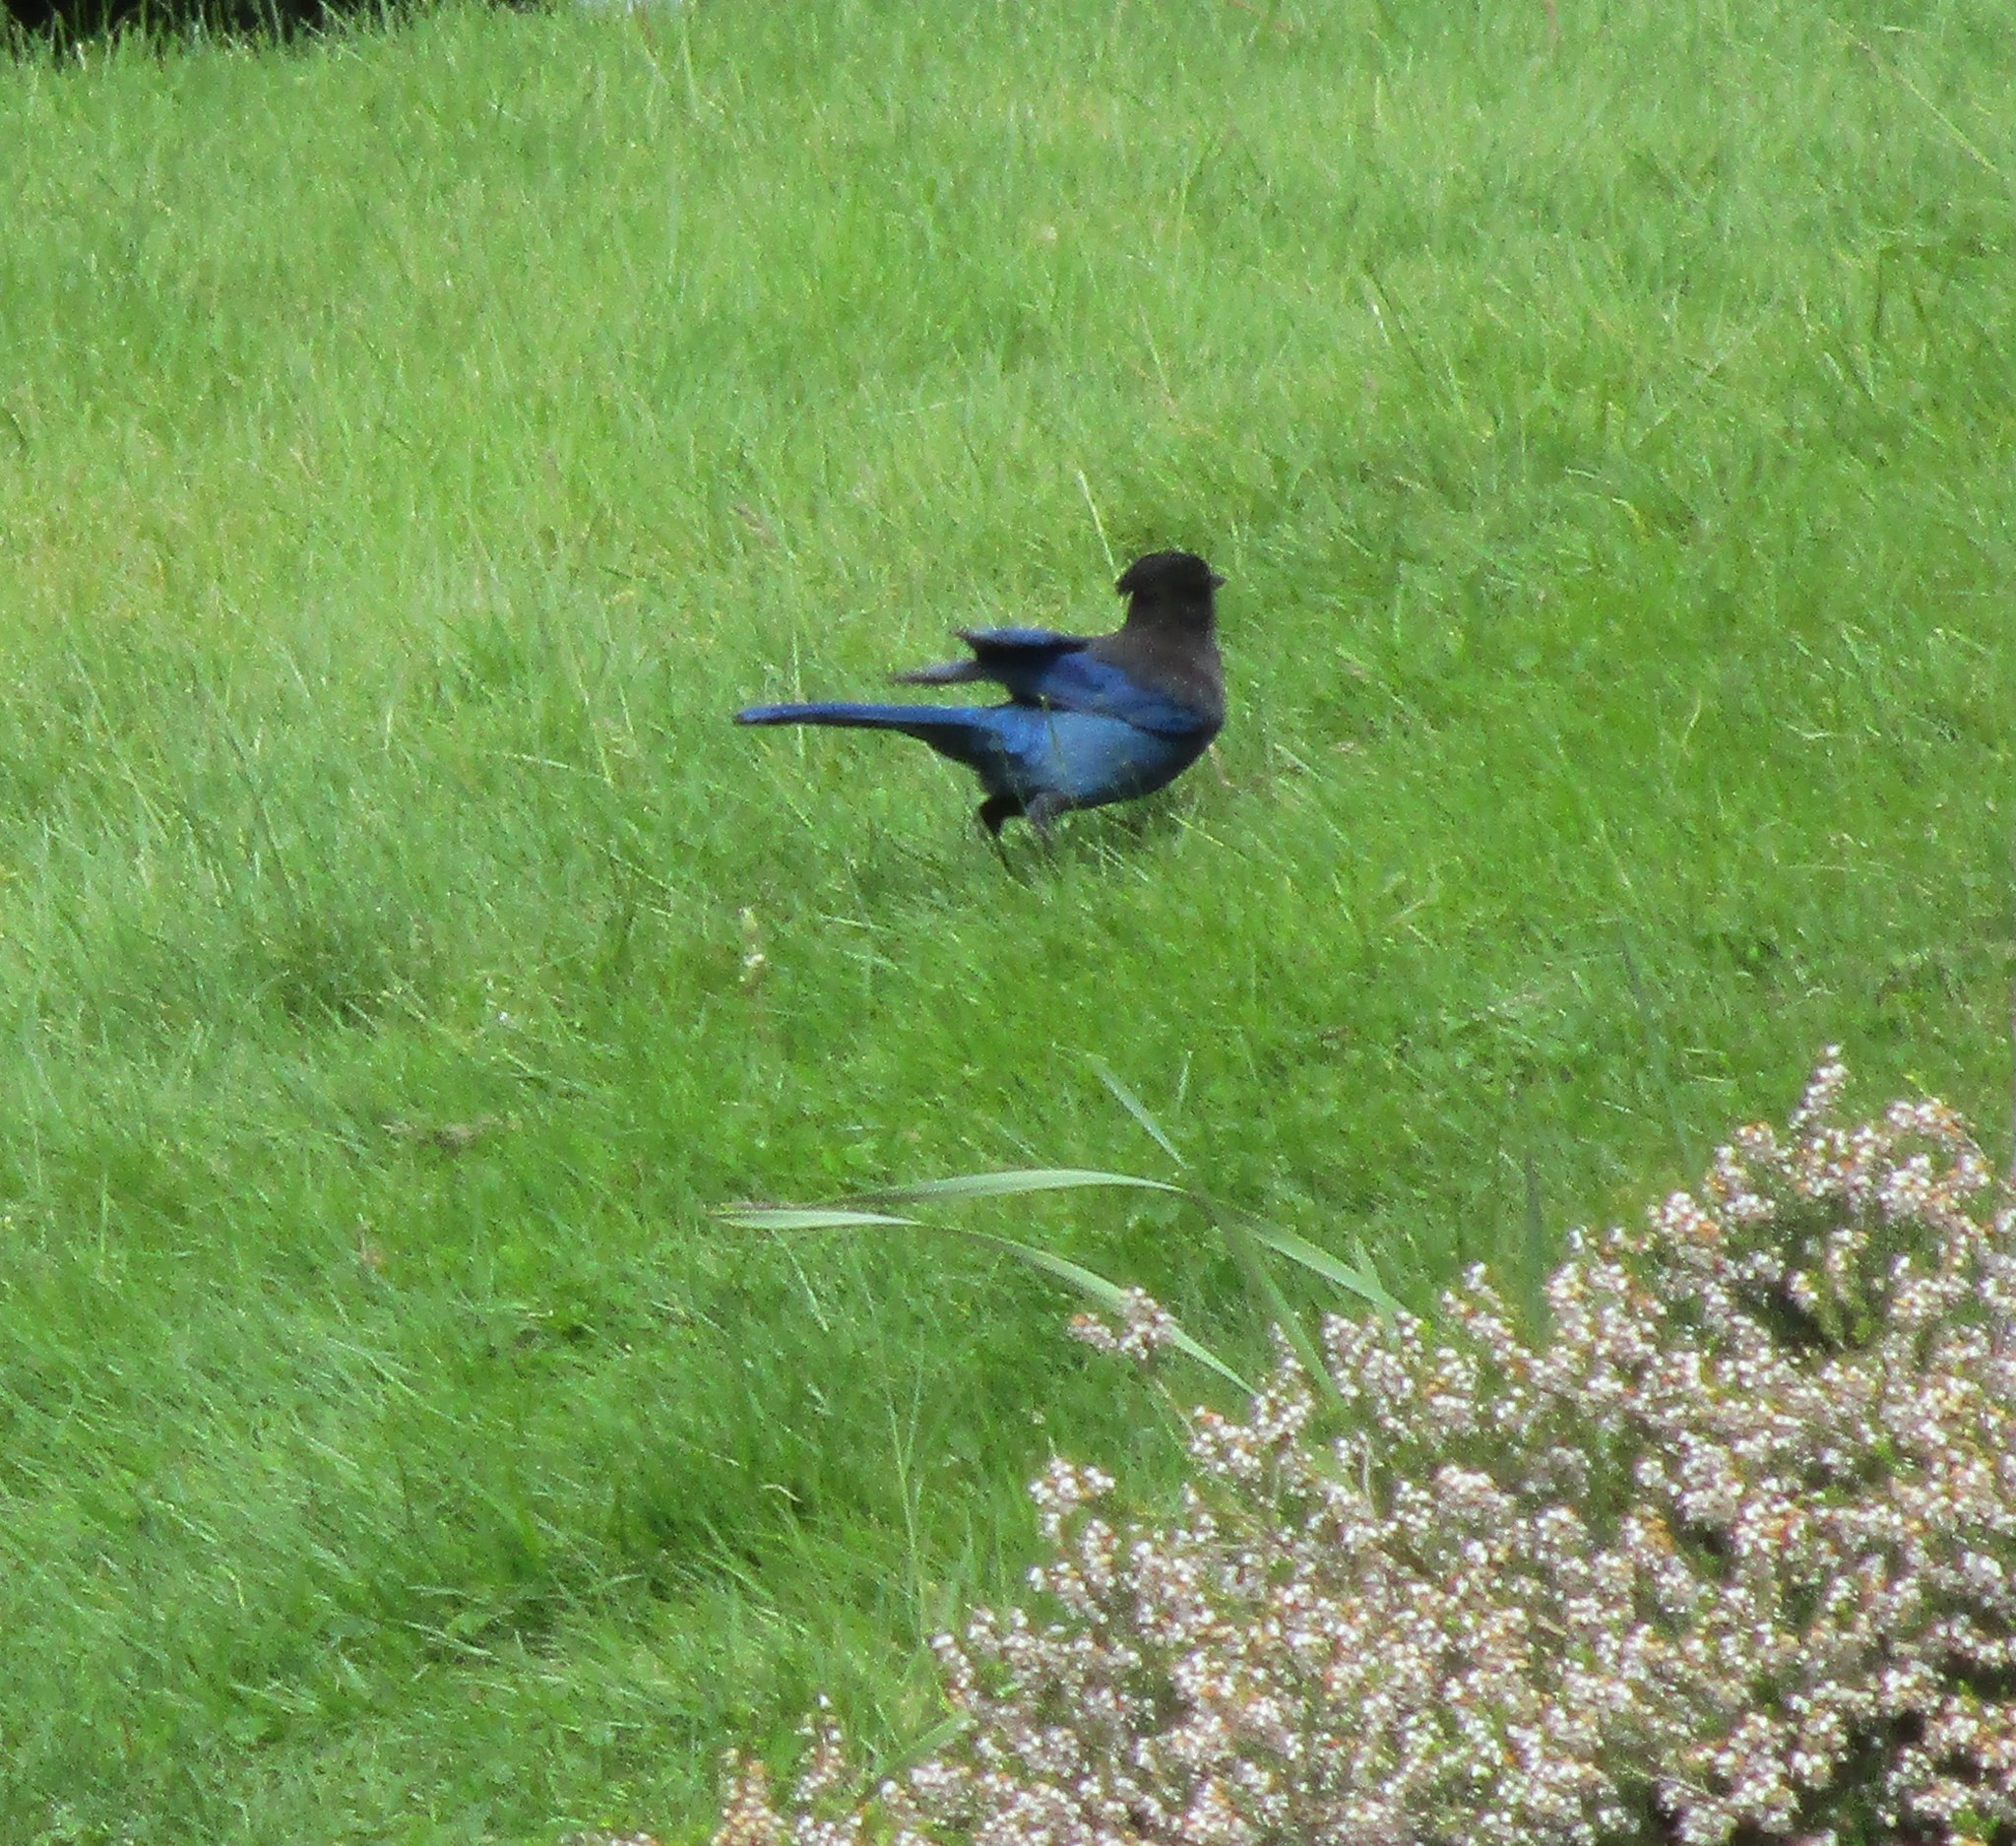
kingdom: Animalia
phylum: Chordata
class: Aves
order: Passeriformes
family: Corvidae
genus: Cyanocitta
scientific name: Cyanocitta stelleri
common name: Steller's jay
